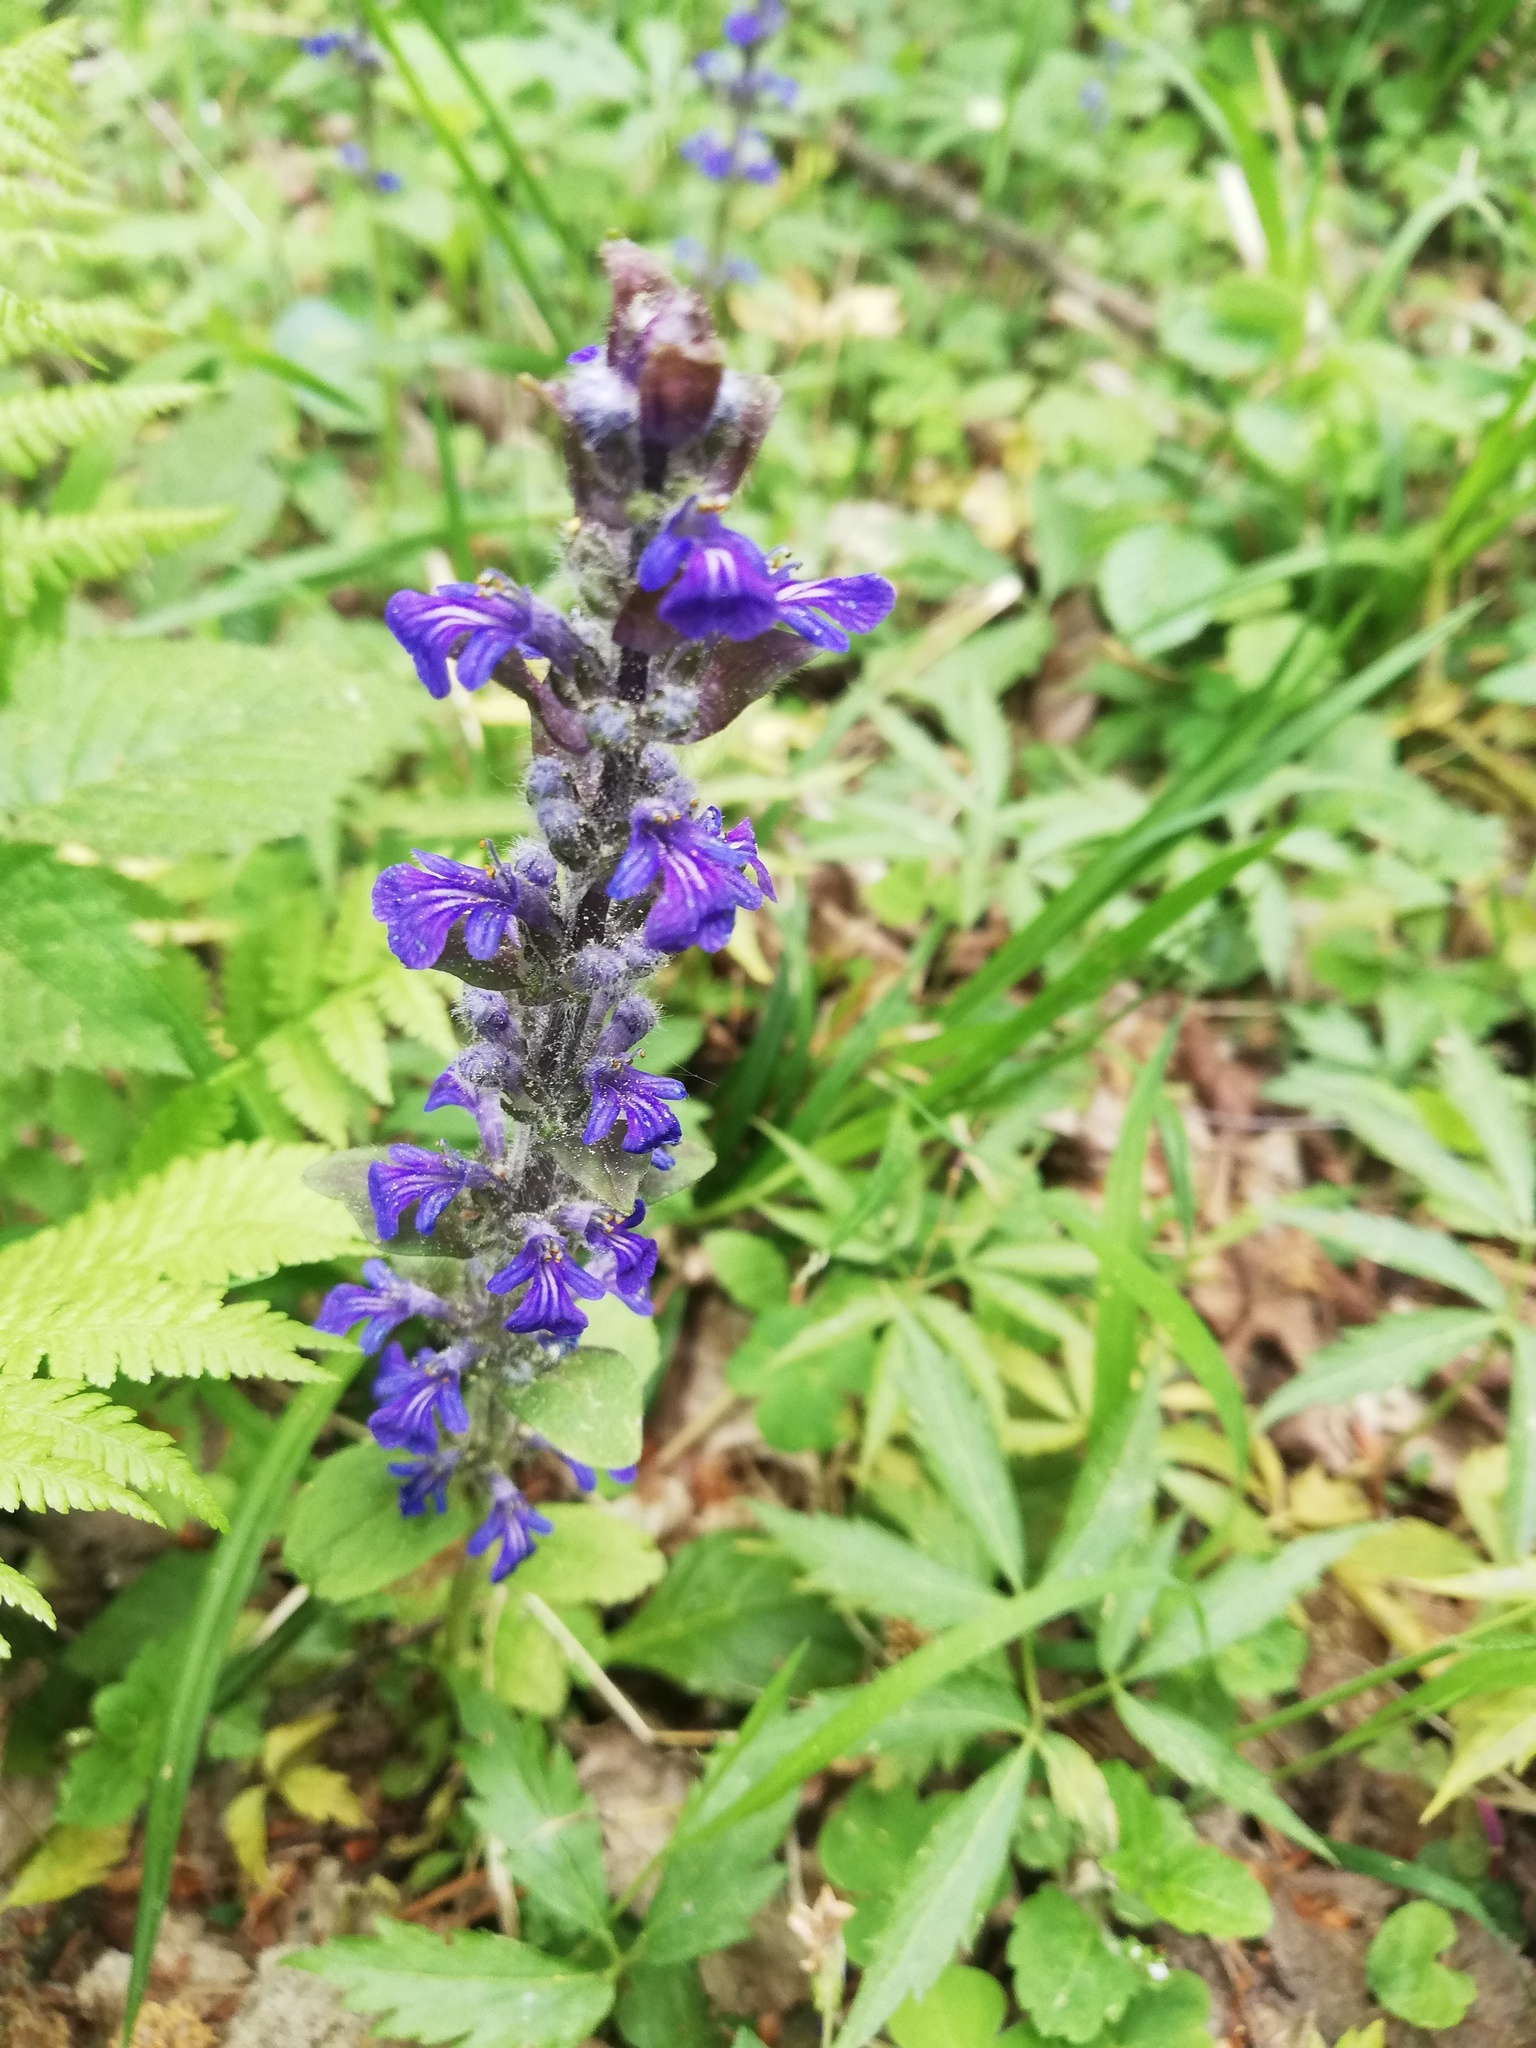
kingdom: Plantae
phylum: Tracheophyta
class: Magnoliopsida
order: Lamiales
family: Lamiaceae
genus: Ajuga
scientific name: Ajuga reptans
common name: Bugle
